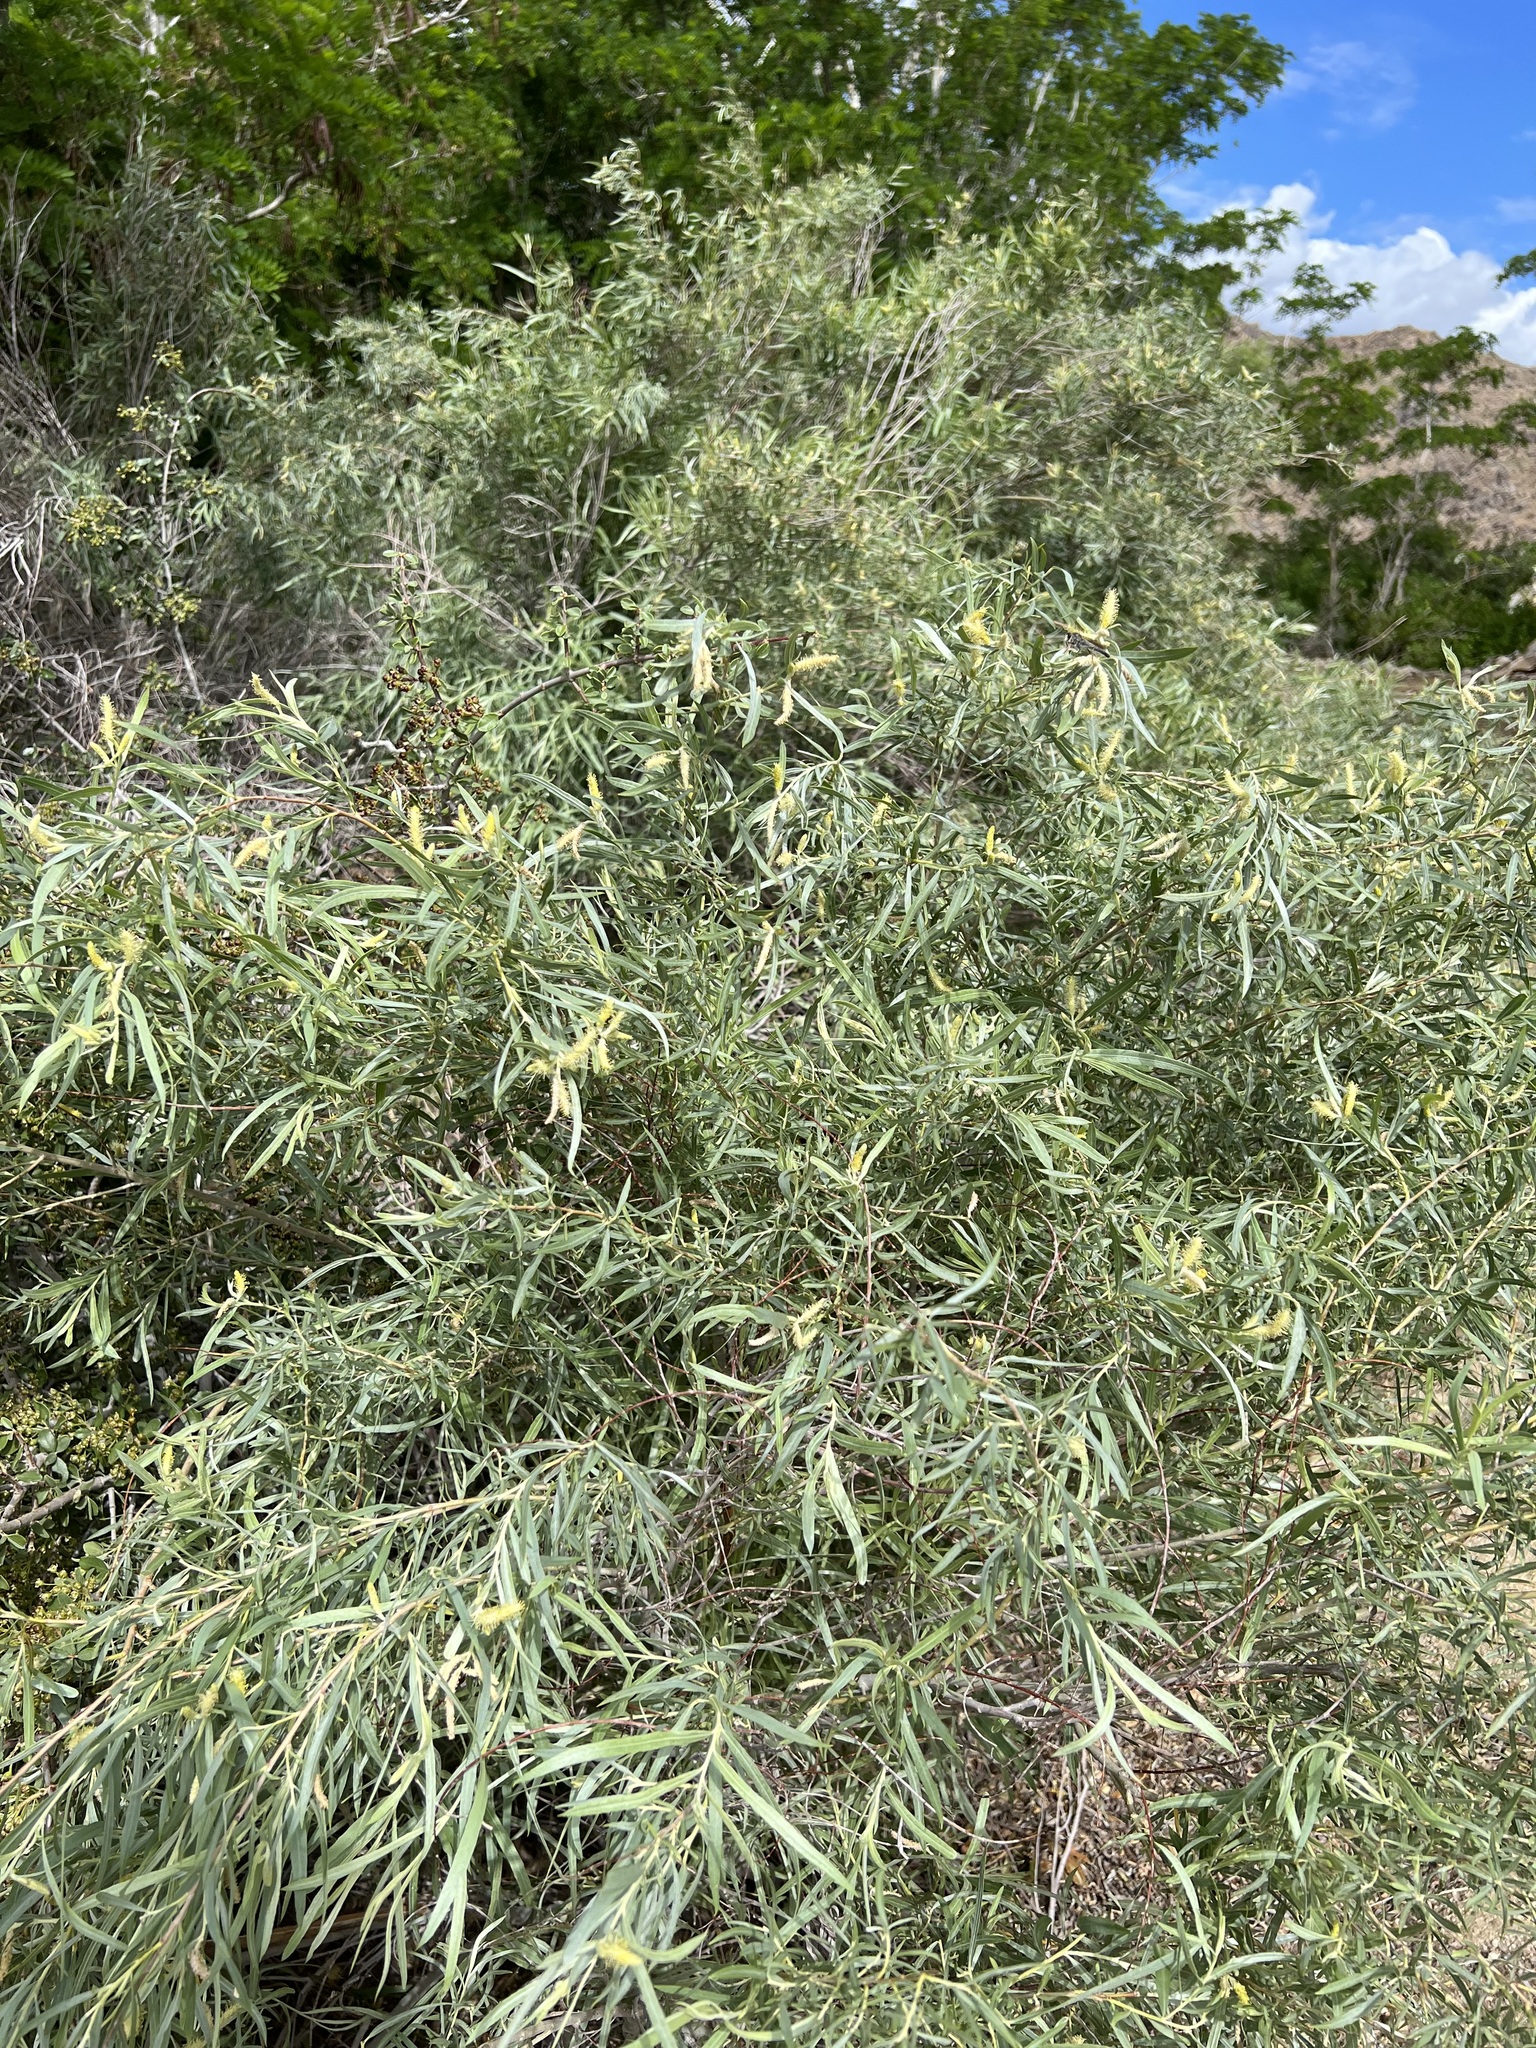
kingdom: Plantae
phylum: Tracheophyta
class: Magnoliopsida
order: Malpighiales
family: Salicaceae
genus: Salix
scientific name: Salix exigua
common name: Coyote willow
